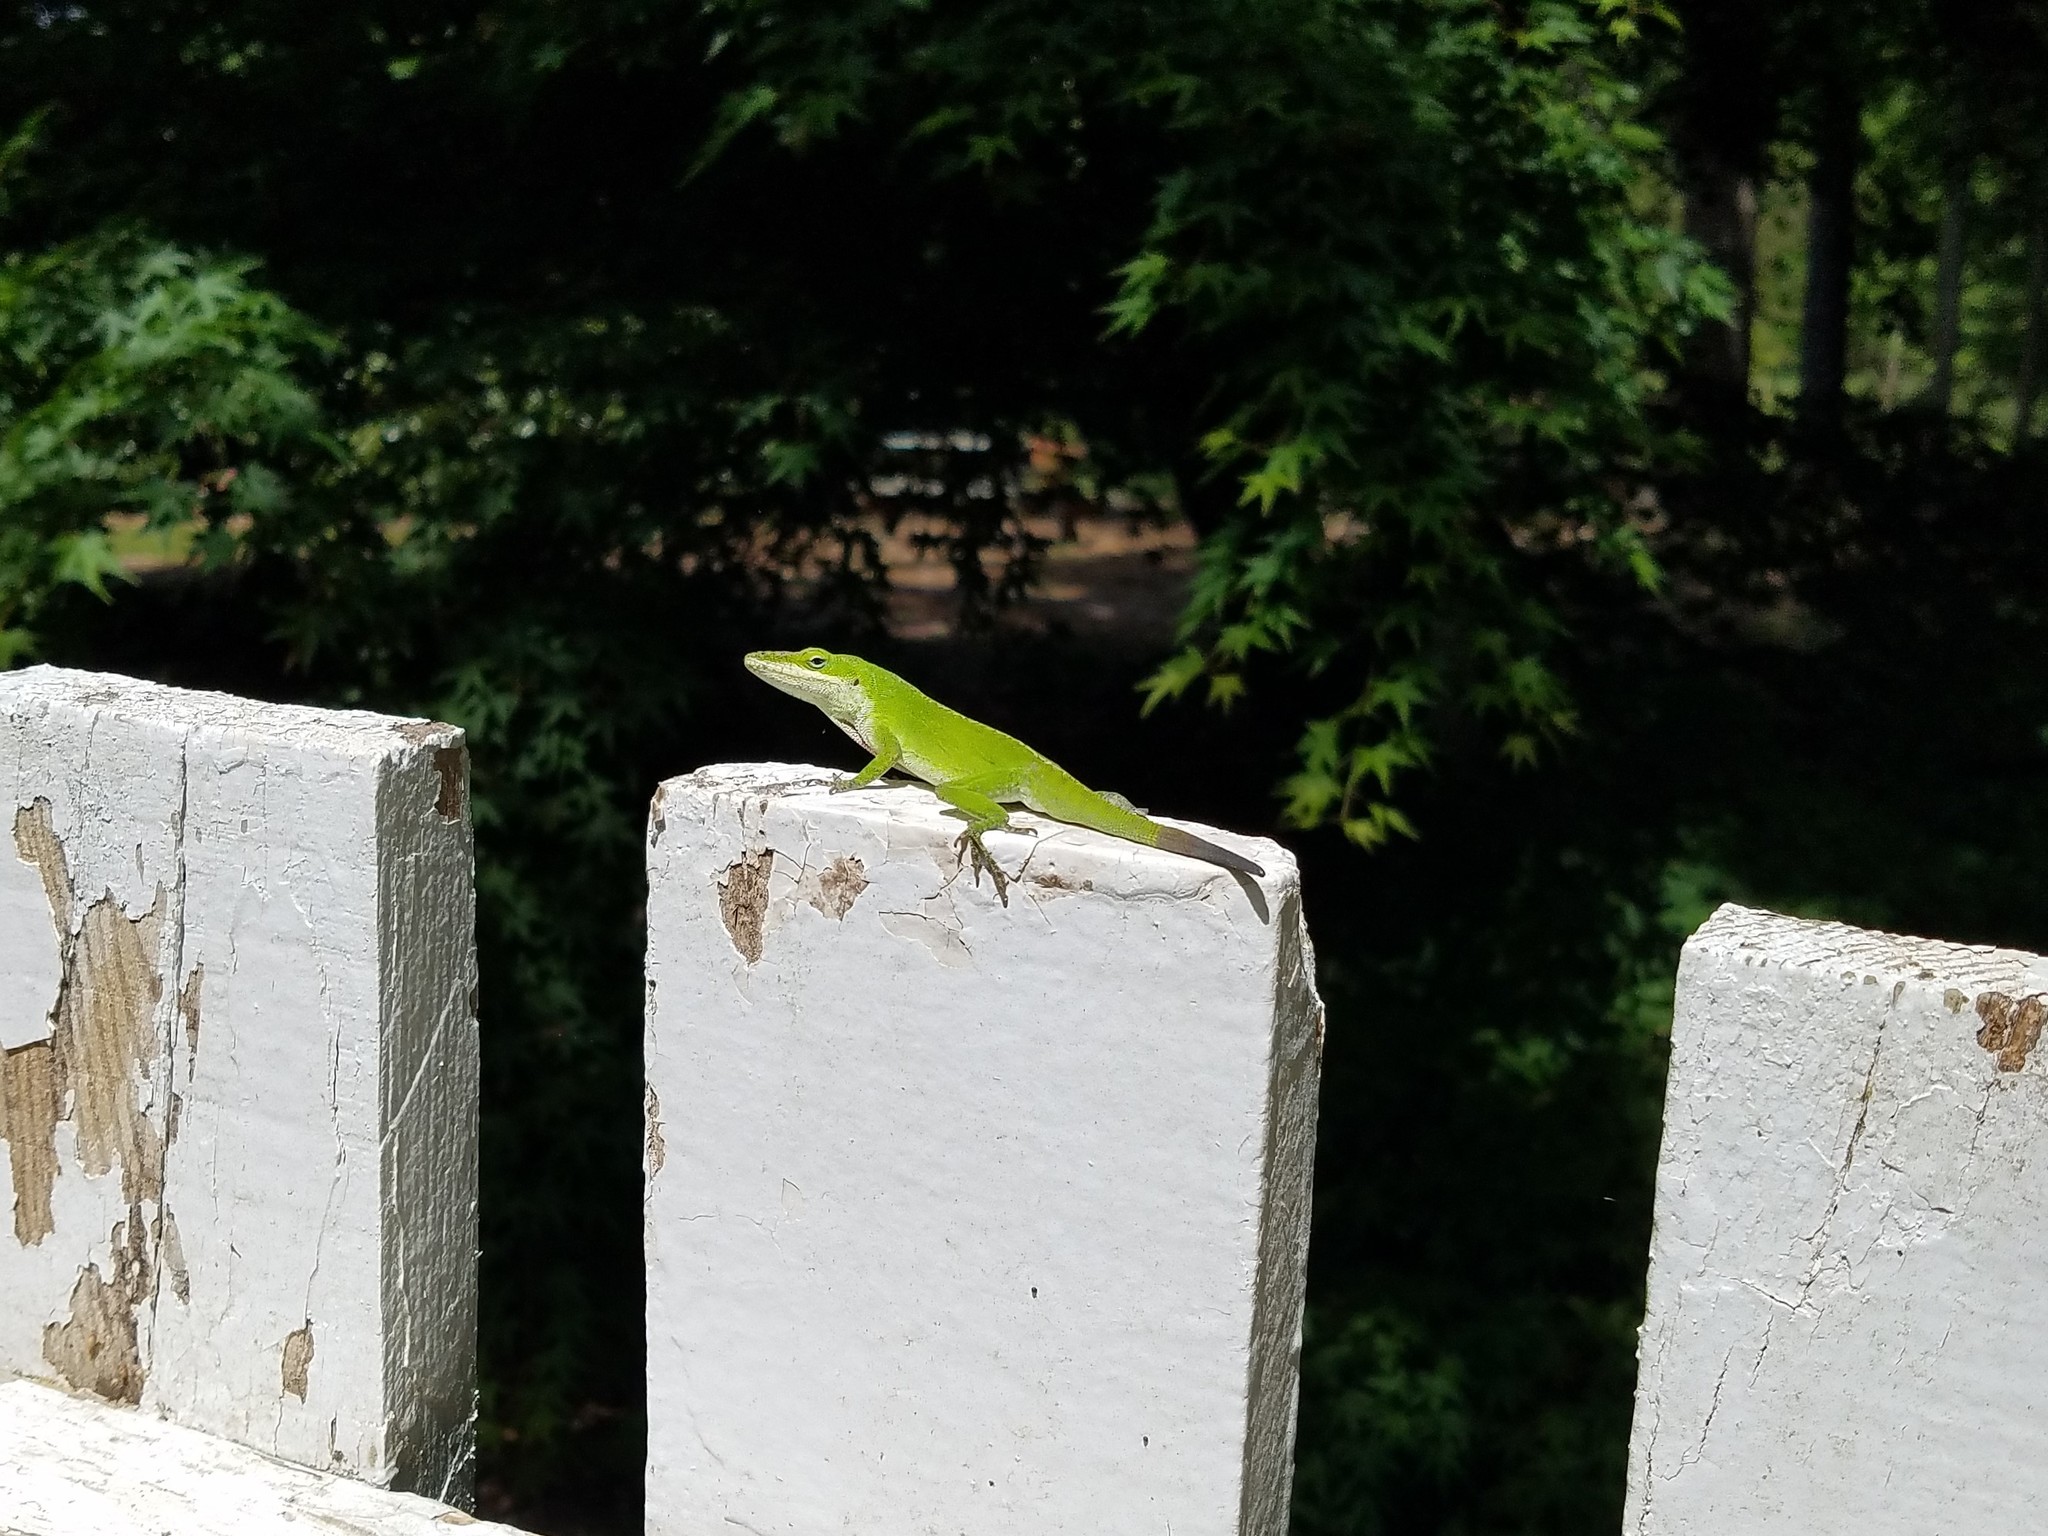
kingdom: Animalia
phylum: Chordata
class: Squamata
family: Dactyloidae
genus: Anolis
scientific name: Anolis carolinensis
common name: Green anole
